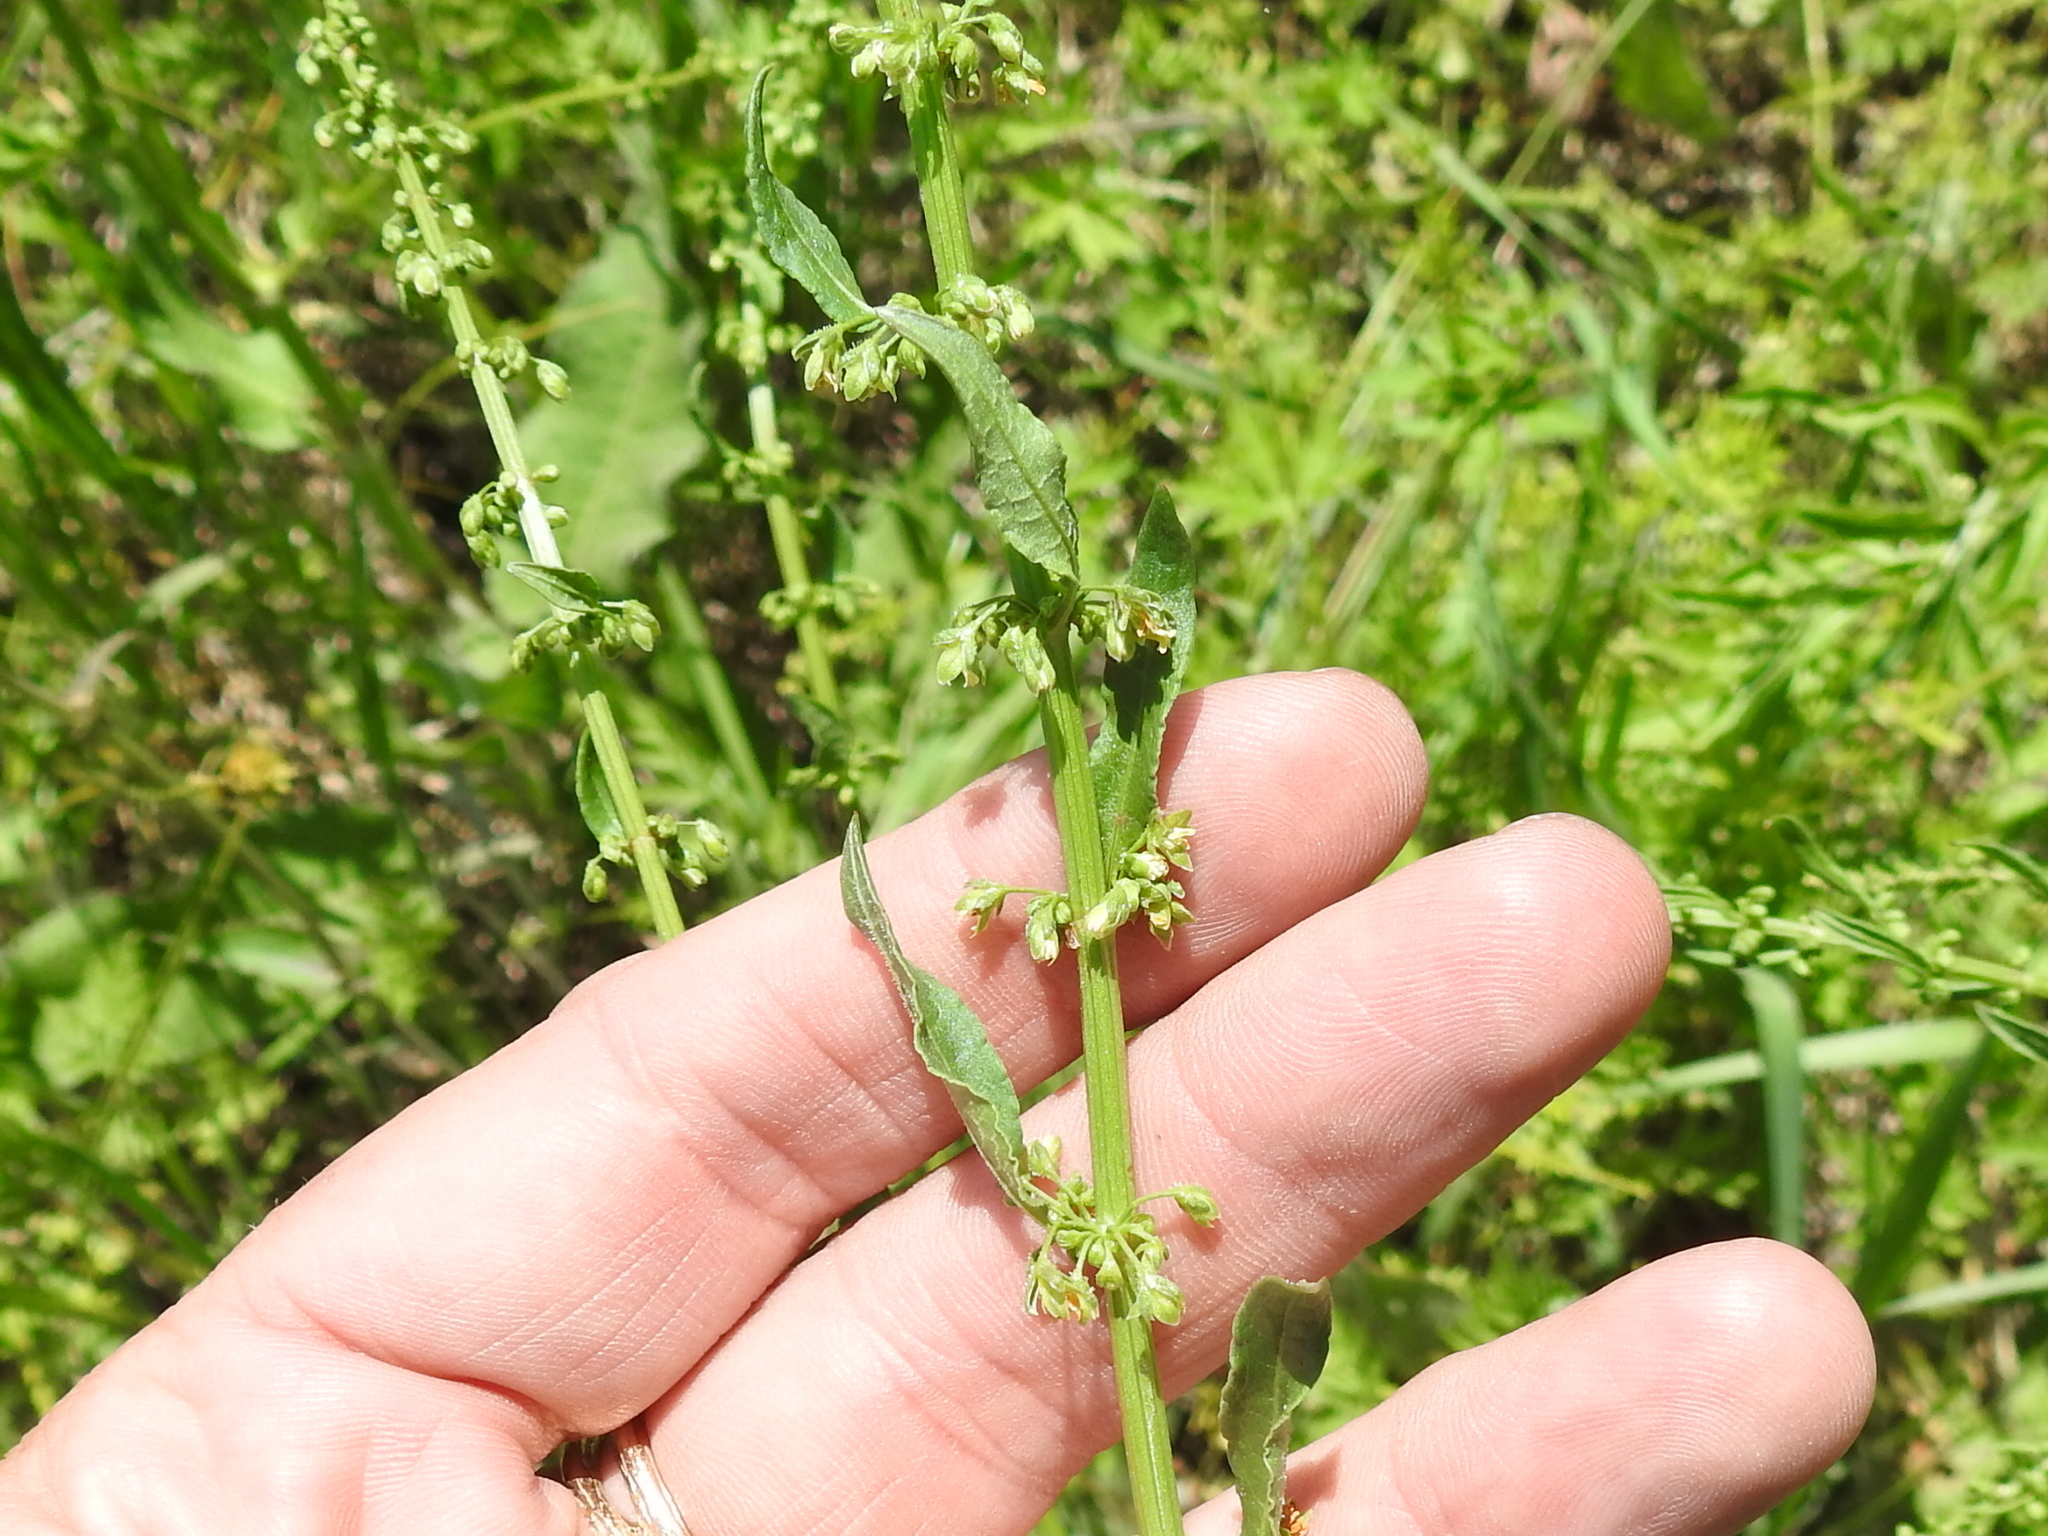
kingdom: Plantae
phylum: Tracheophyta
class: Magnoliopsida
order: Caryophyllales
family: Polygonaceae
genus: Rumex
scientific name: Rumex altissimus
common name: Smooth dock
